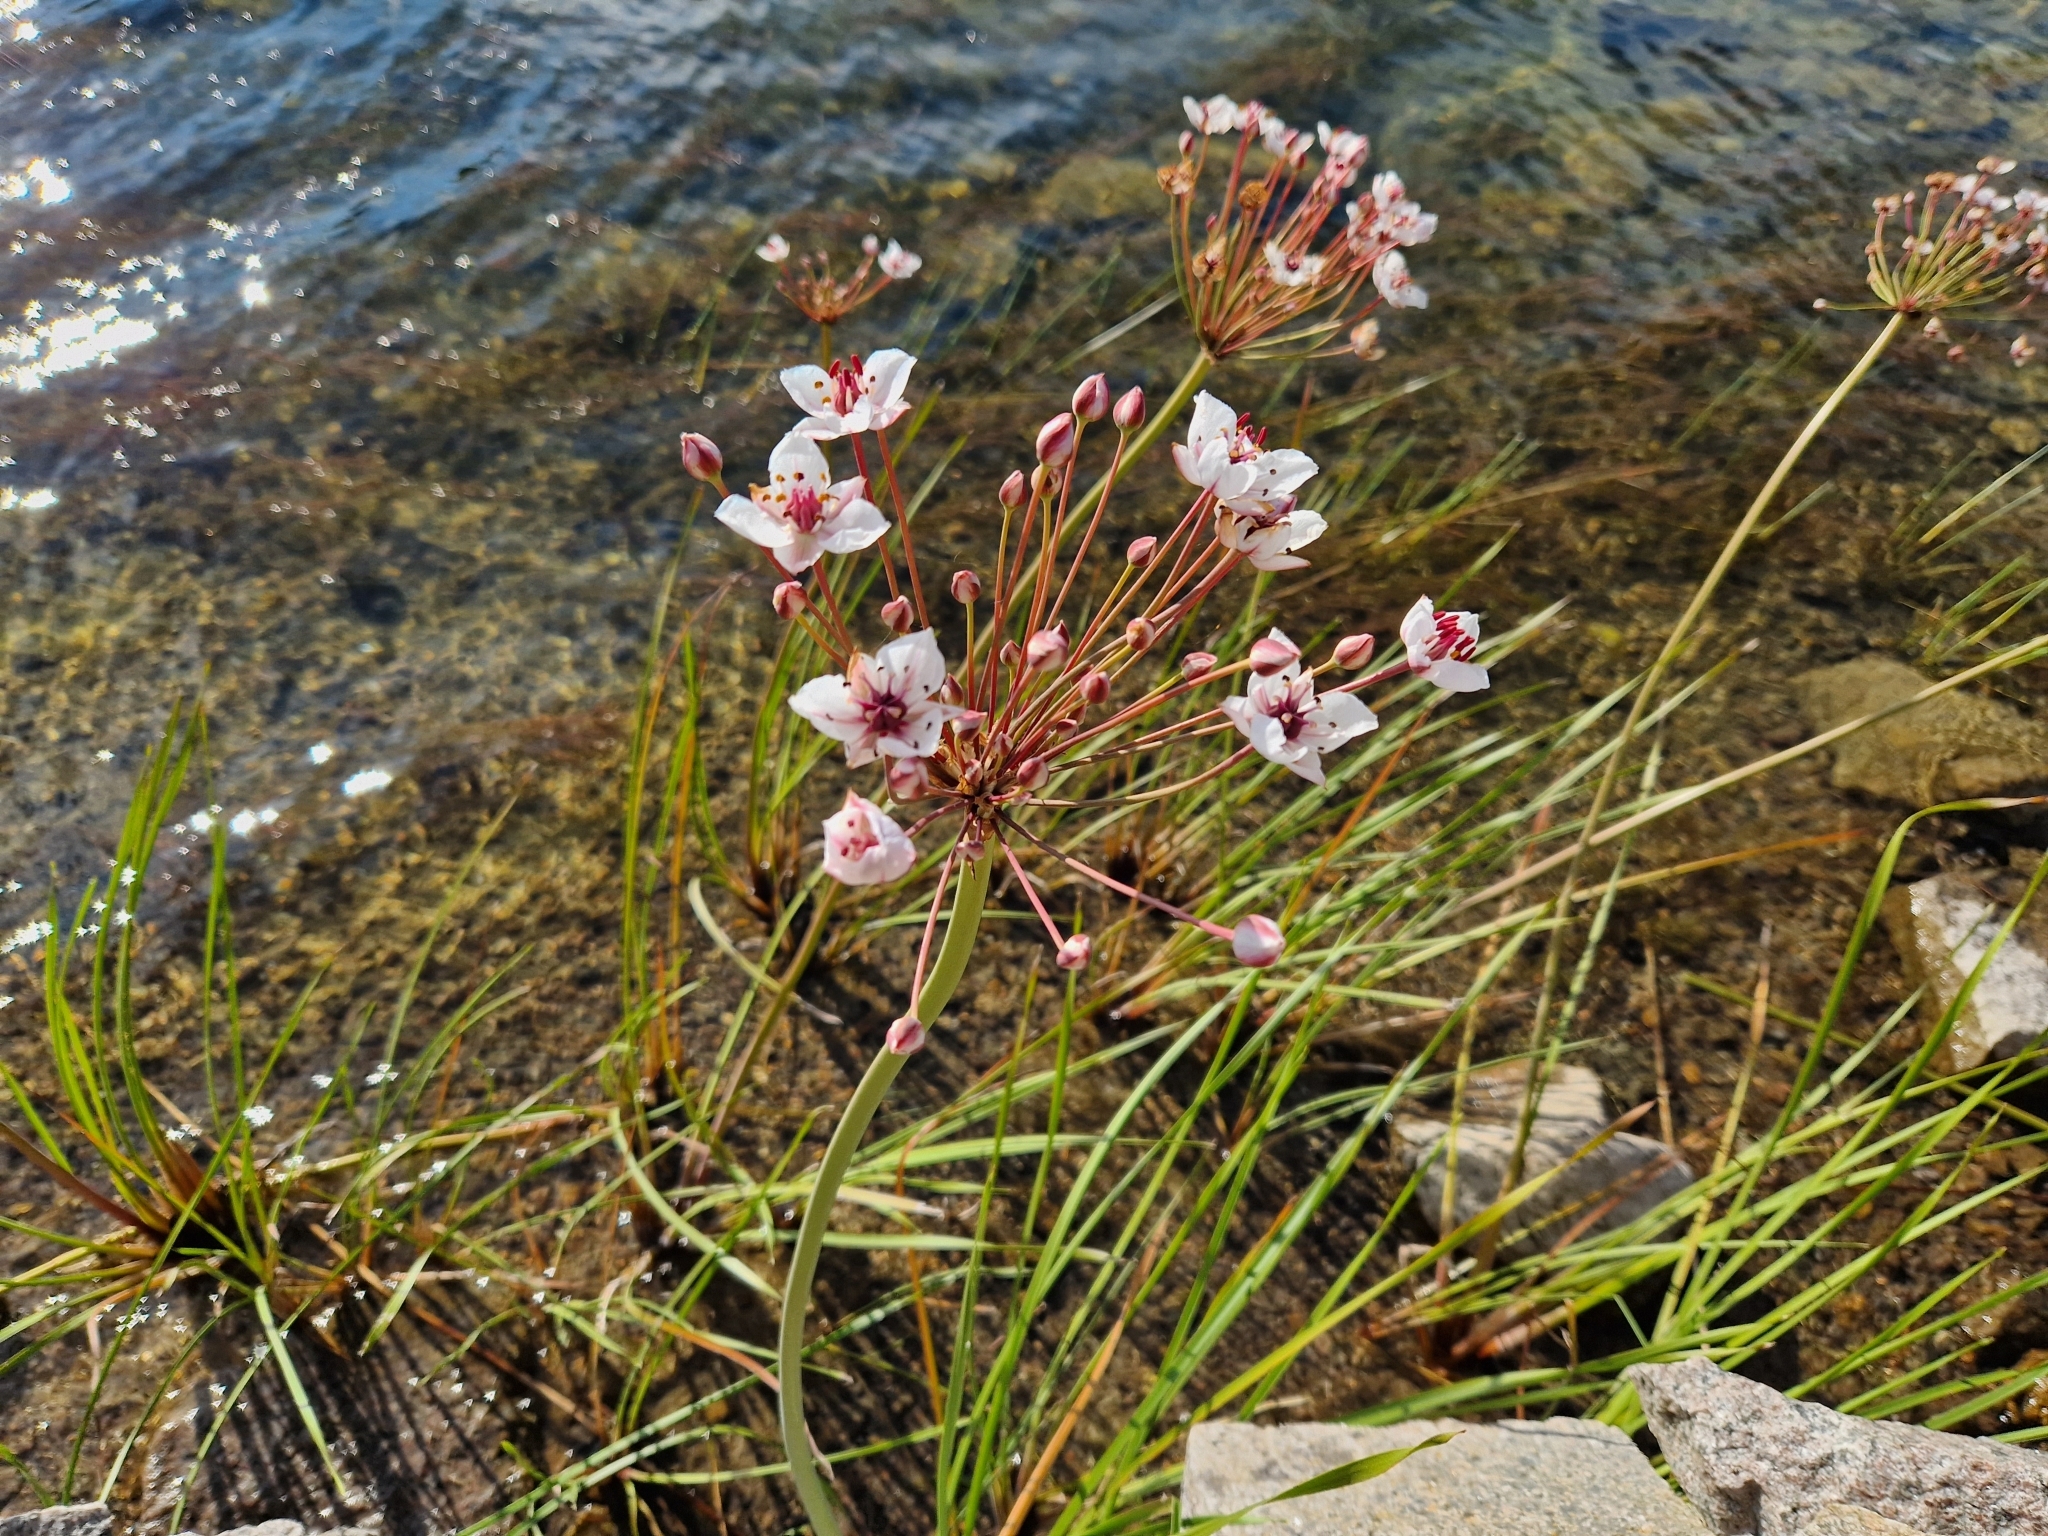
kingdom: Plantae
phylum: Tracheophyta
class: Liliopsida
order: Alismatales
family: Butomaceae
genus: Butomus
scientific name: Butomus umbellatus
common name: Flowering-rush
